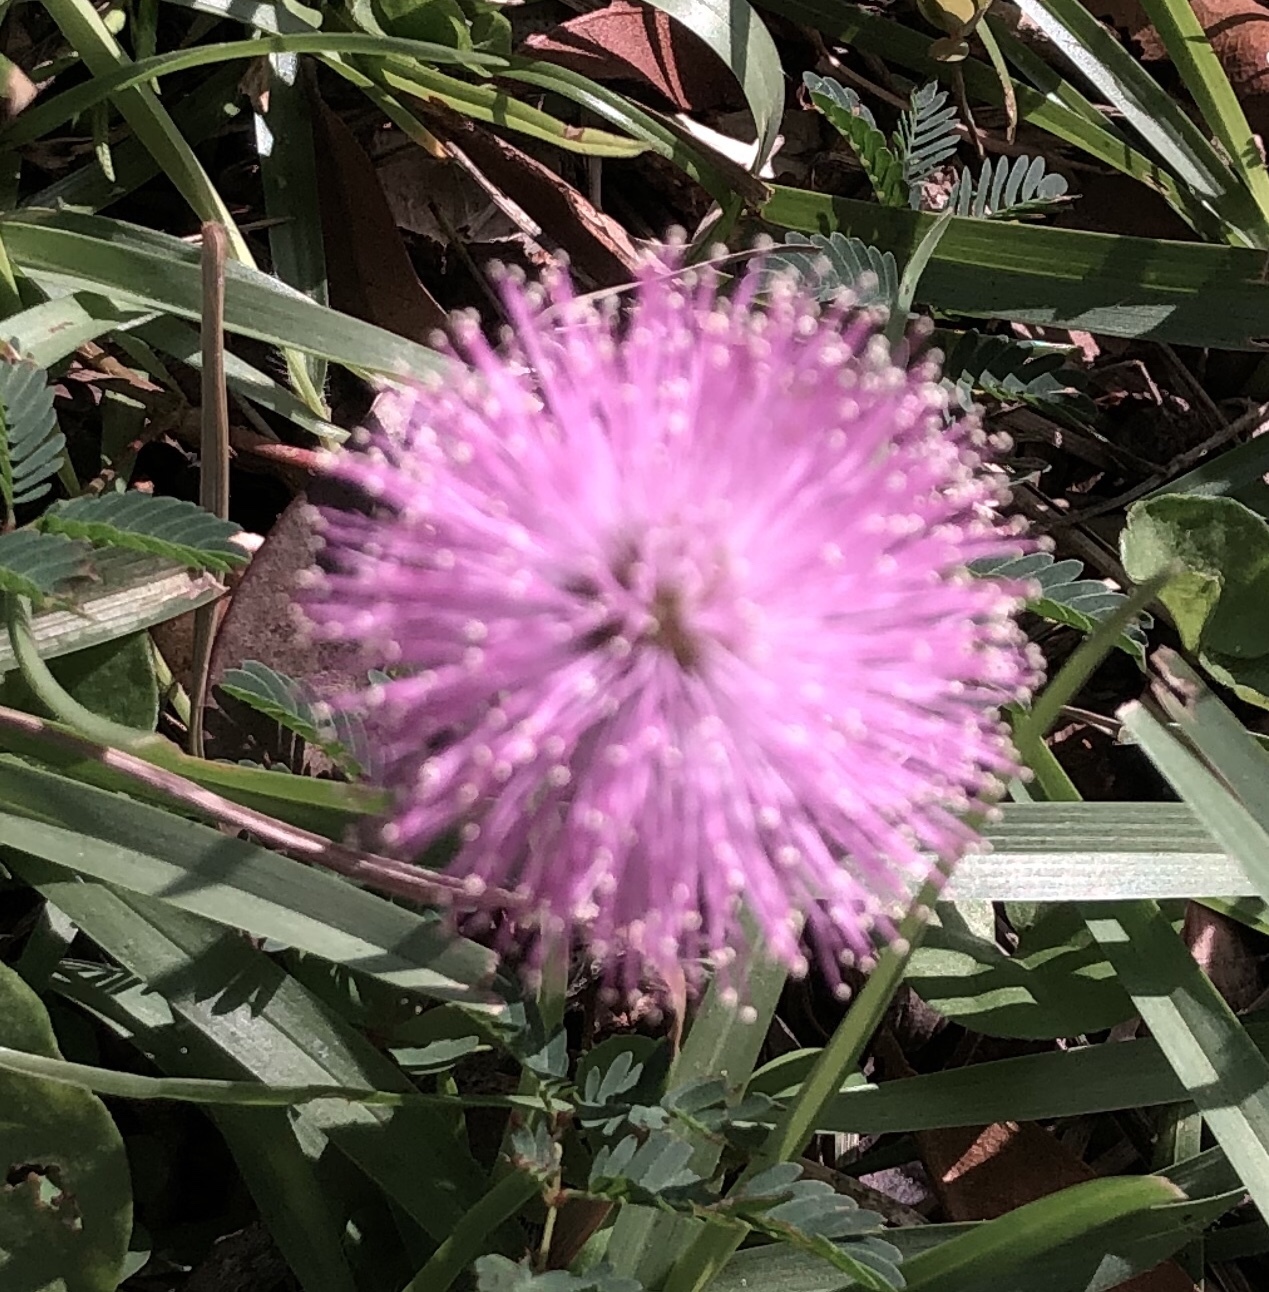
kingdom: Plantae
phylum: Tracheophyta
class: Magnoliopsida
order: Fabales
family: Fabaceae
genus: Mimosa
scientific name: Mimosa strigillosa
